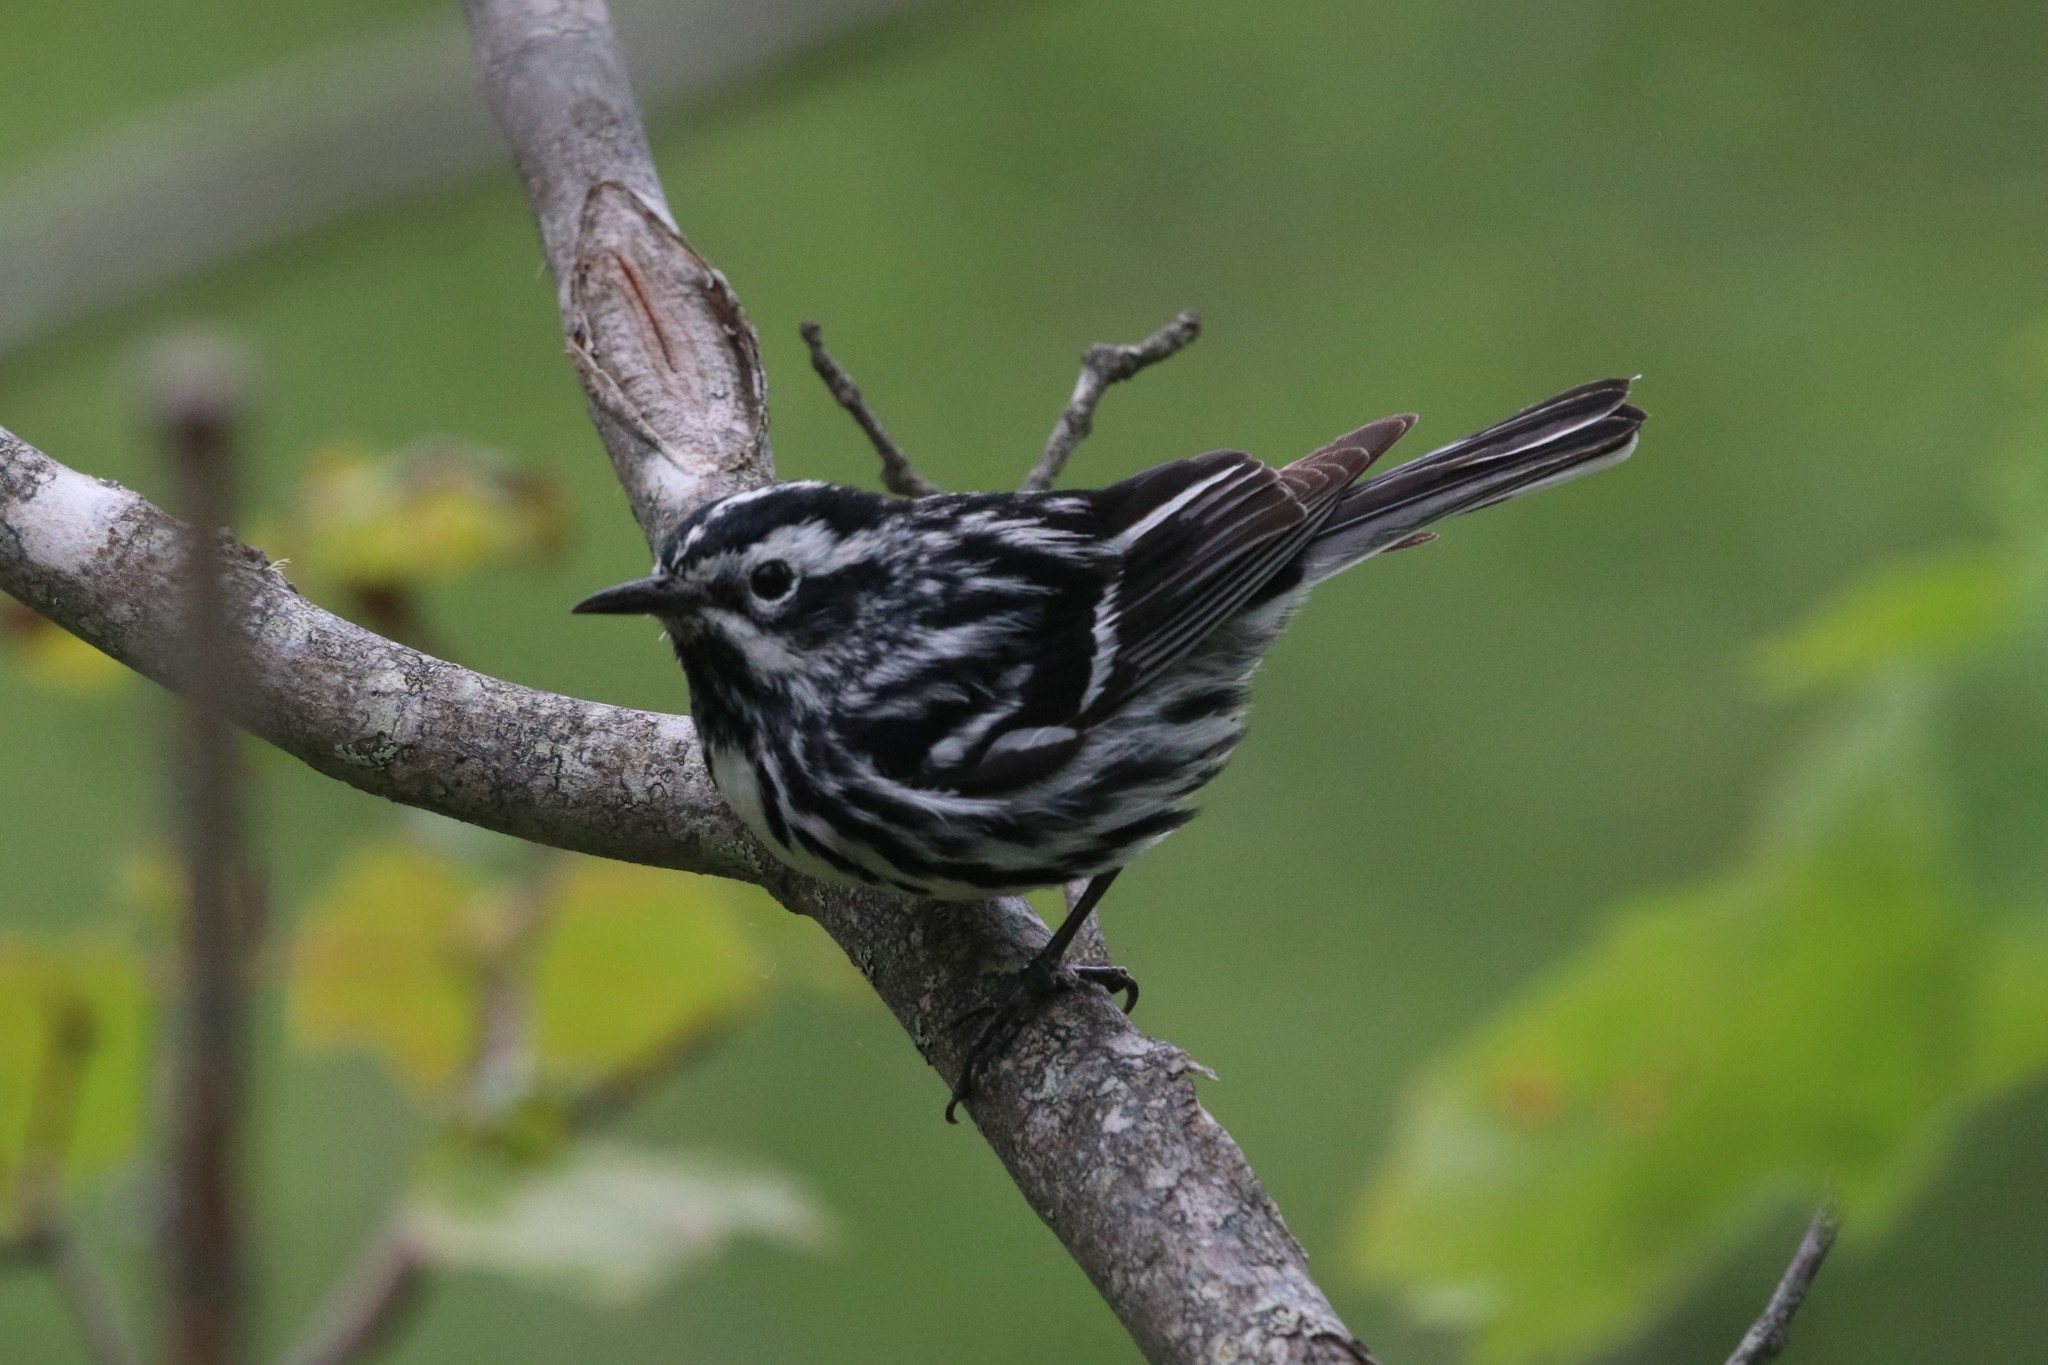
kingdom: Animalia
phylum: Chordata
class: Aves
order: Passeriformes
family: Parulidae
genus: Mniotilta
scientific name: Mniotilta varia
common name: Black-and-white warbler
